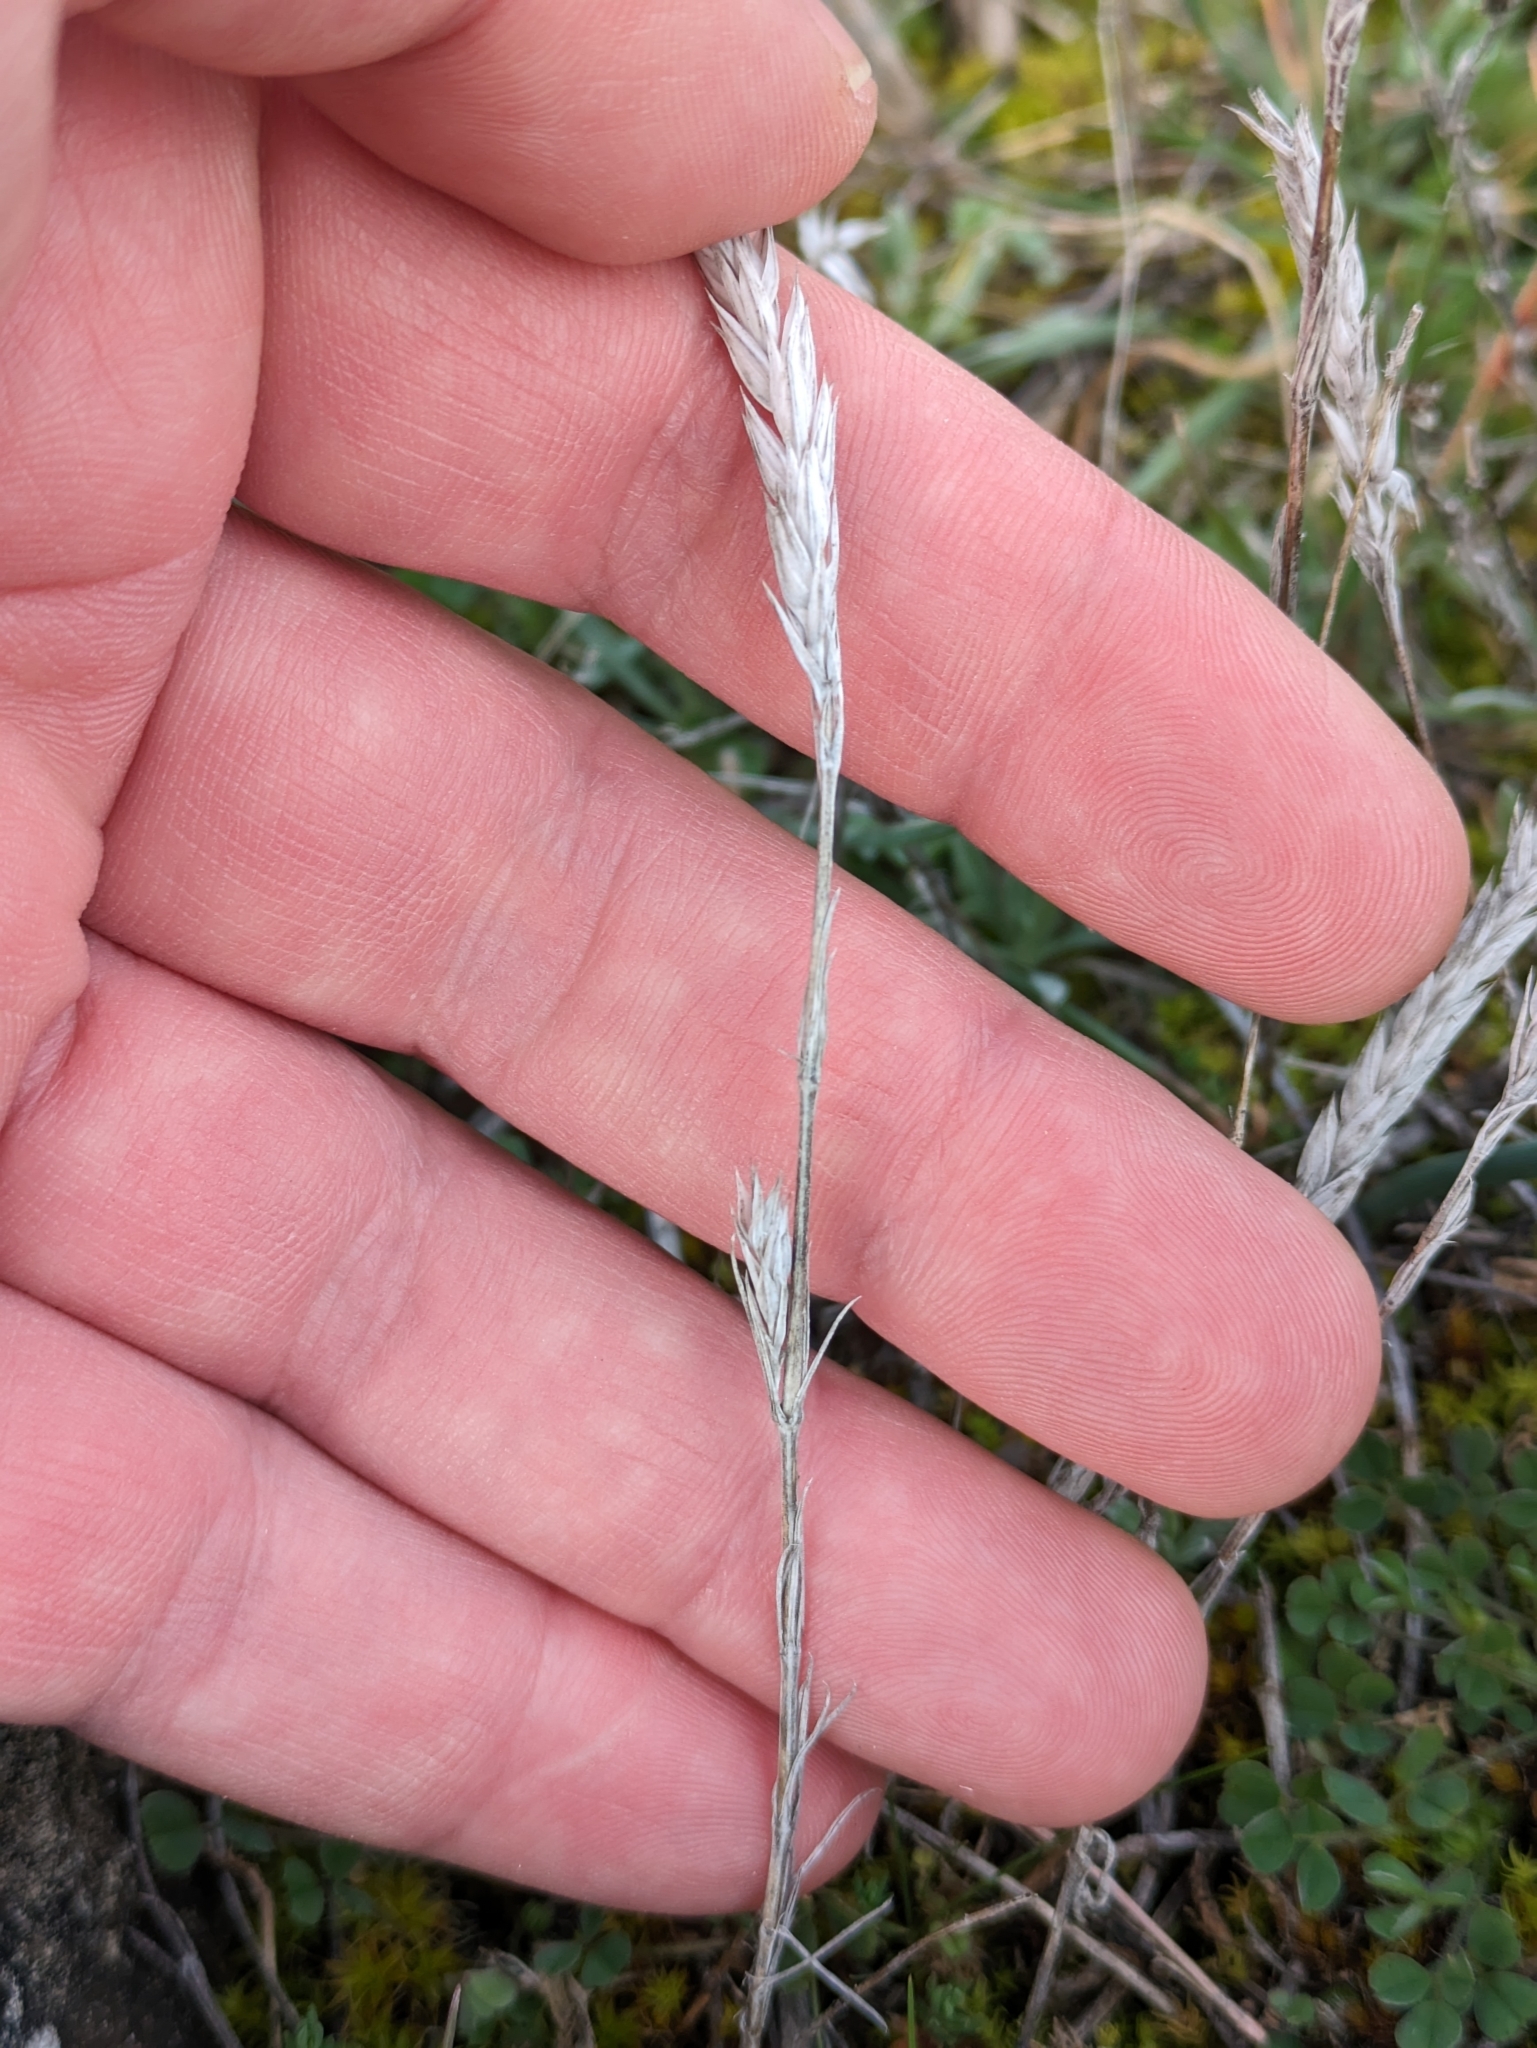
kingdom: Plantae
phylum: Tracheophyta
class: Magnoliopsida
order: Gentianales
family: Rubiaceae
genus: Crucianella
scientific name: Crucianella angustifolia
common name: Narrowleaf crucianella
